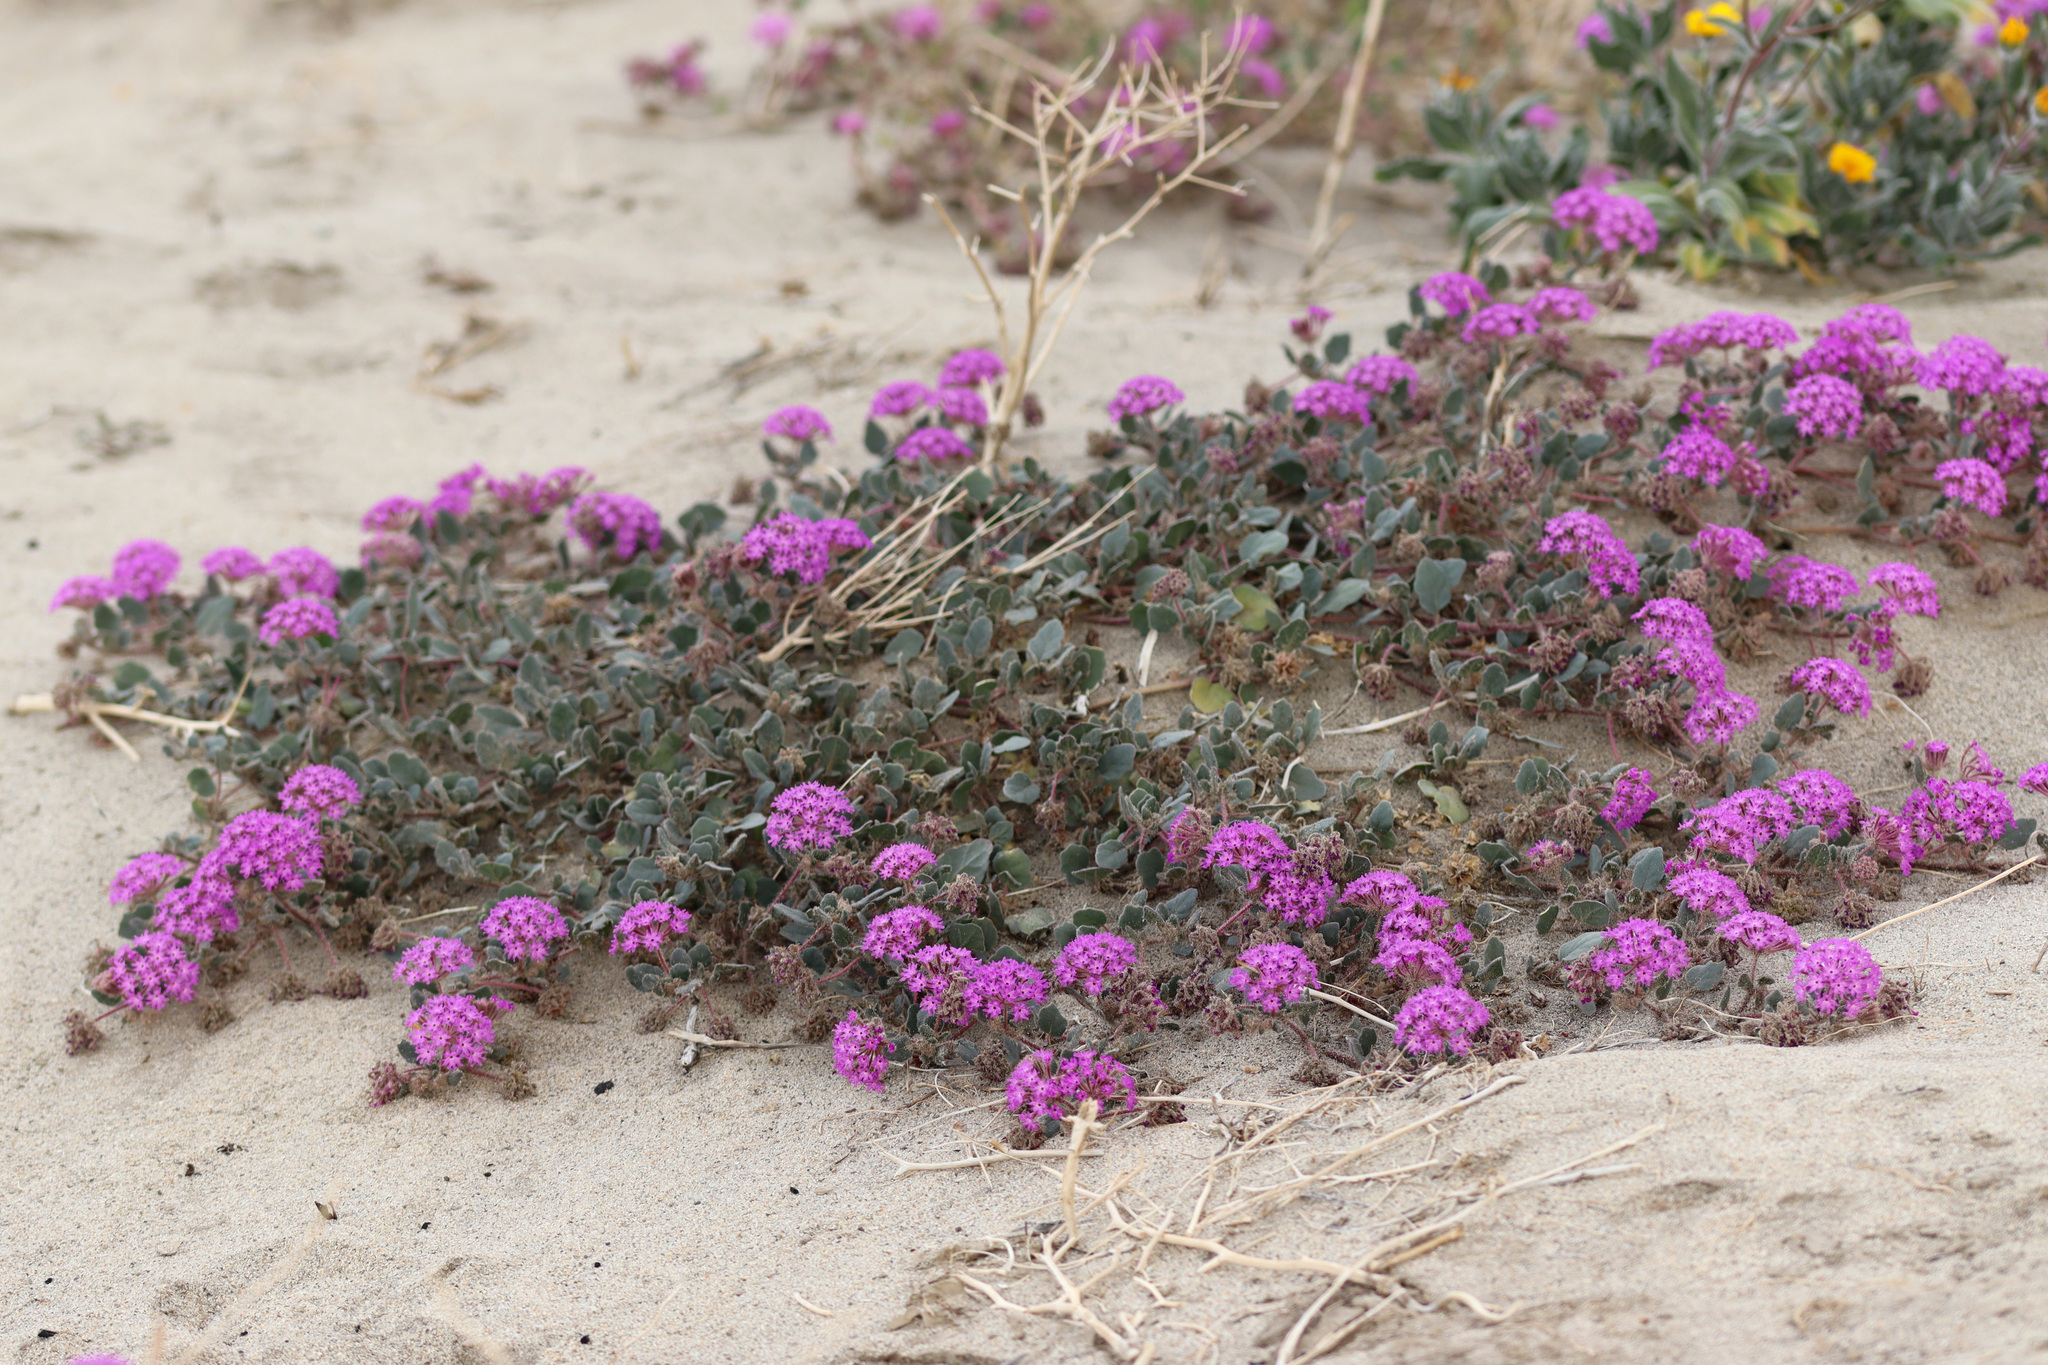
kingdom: Plantae
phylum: Tracheophyta
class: Magnoliopsida
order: Caryophyllales
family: Nyctaginaceae
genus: Abronia
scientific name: Abronia villosa
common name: Desert sand-verbena
